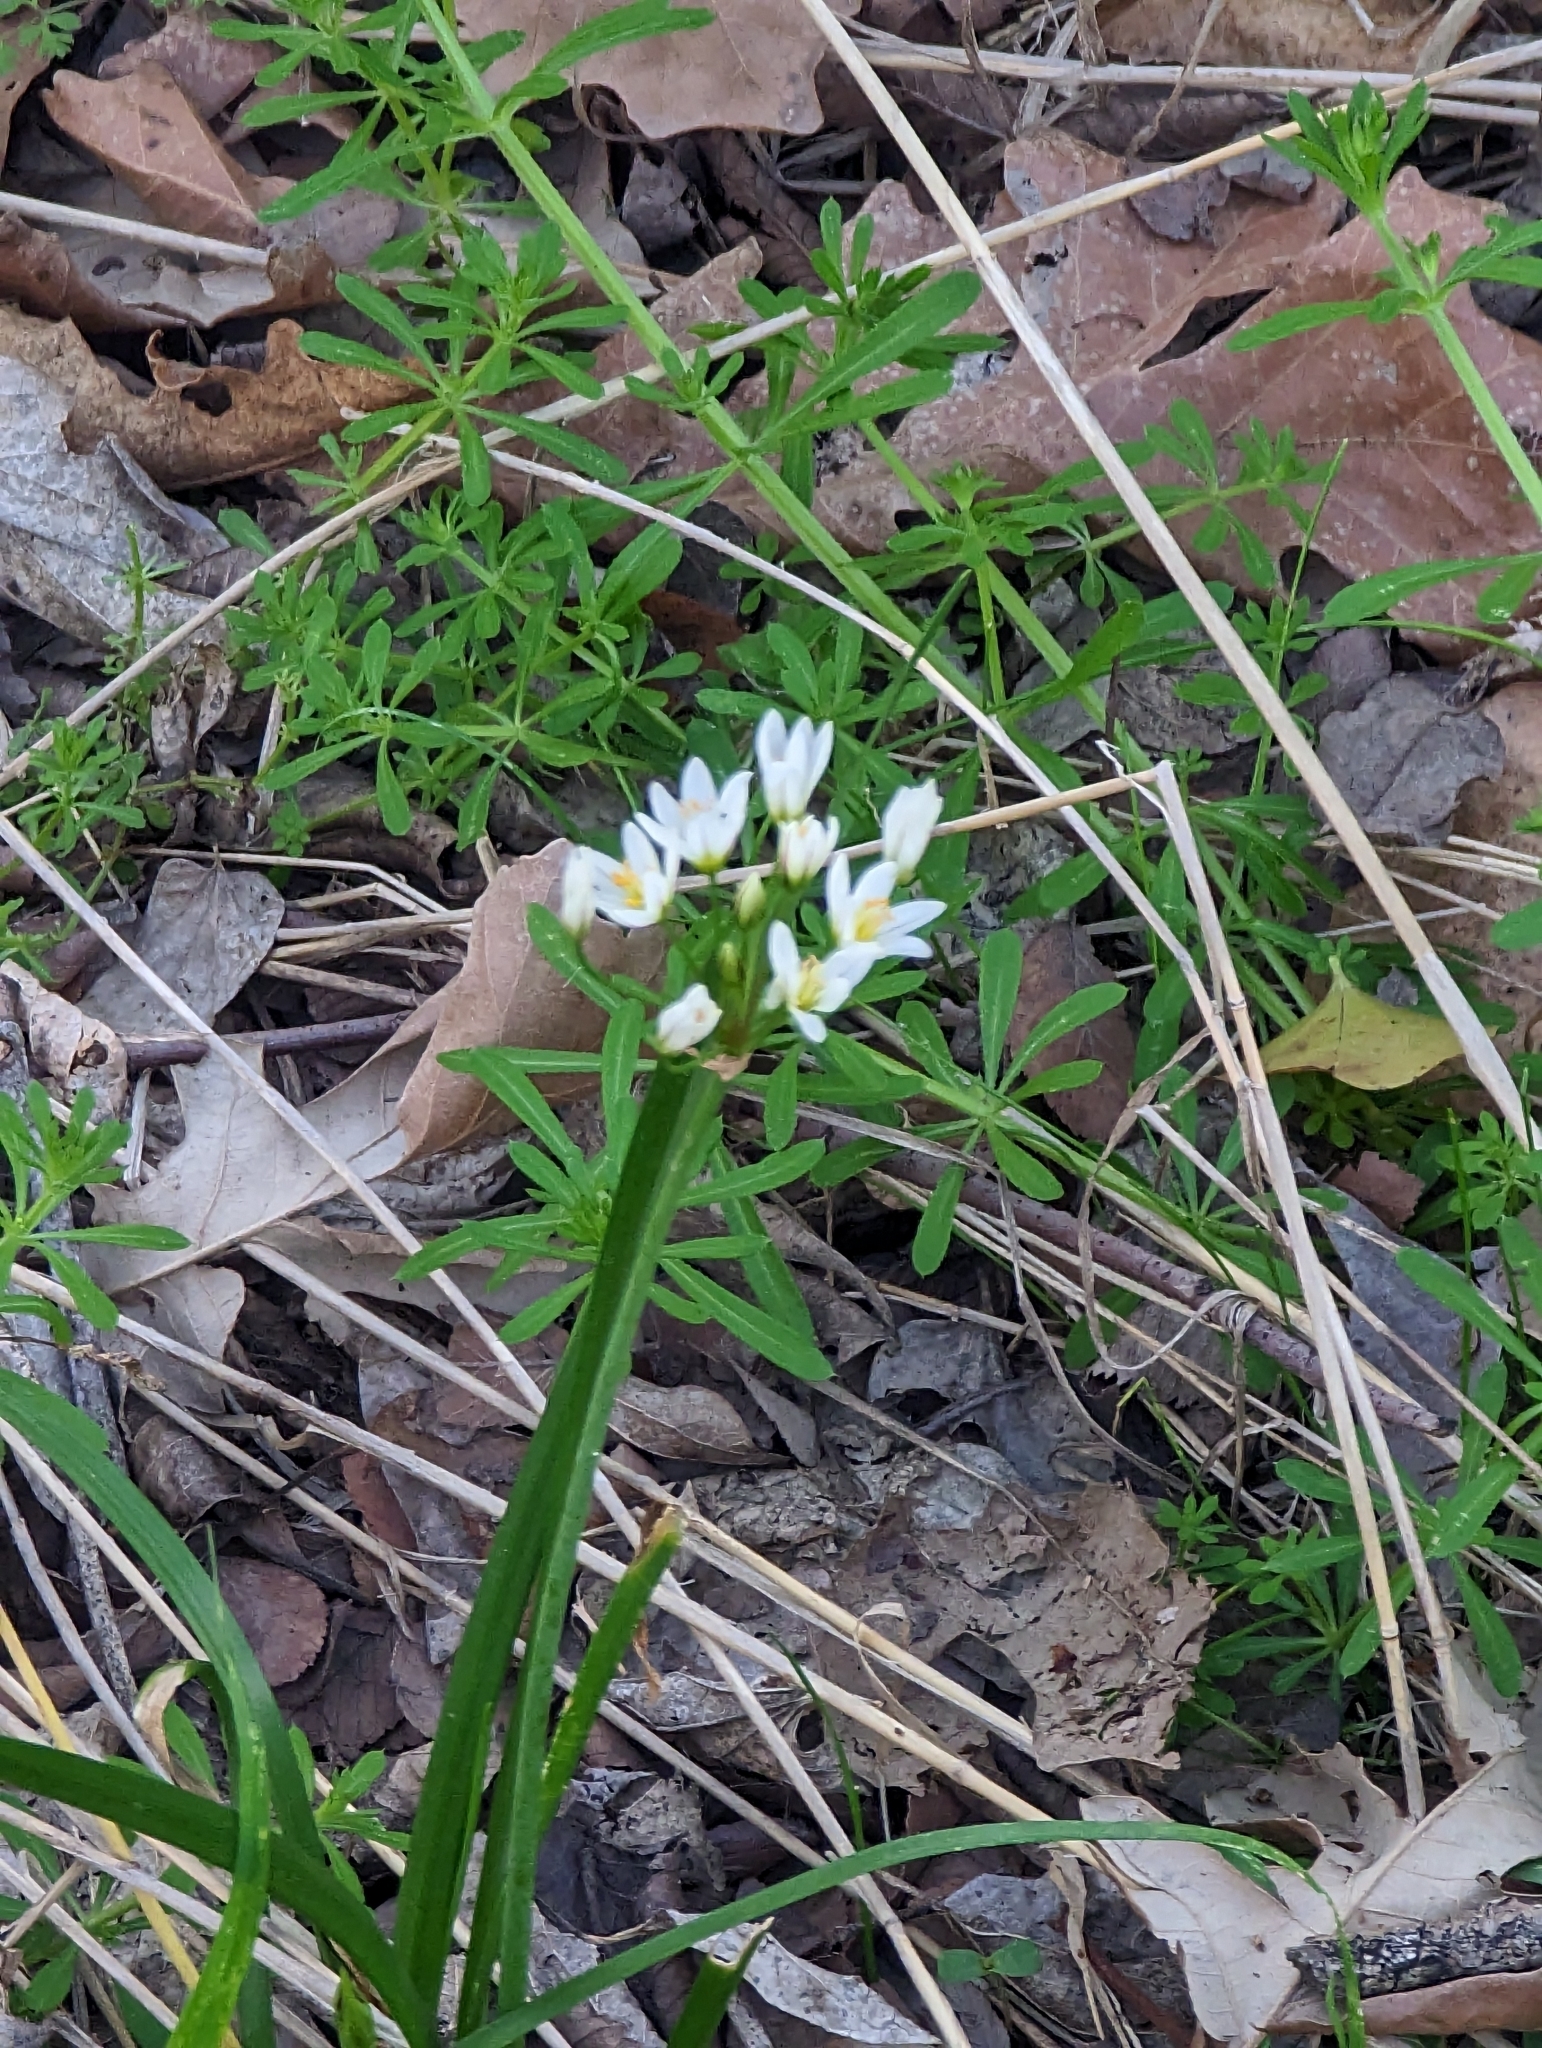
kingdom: Plantae
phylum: Tracheophyta
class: Liliopsida
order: Asparagales
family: Amaryllidaceae
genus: Nothoscordum
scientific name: Nothoscordum bivalve
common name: Crow-poison
